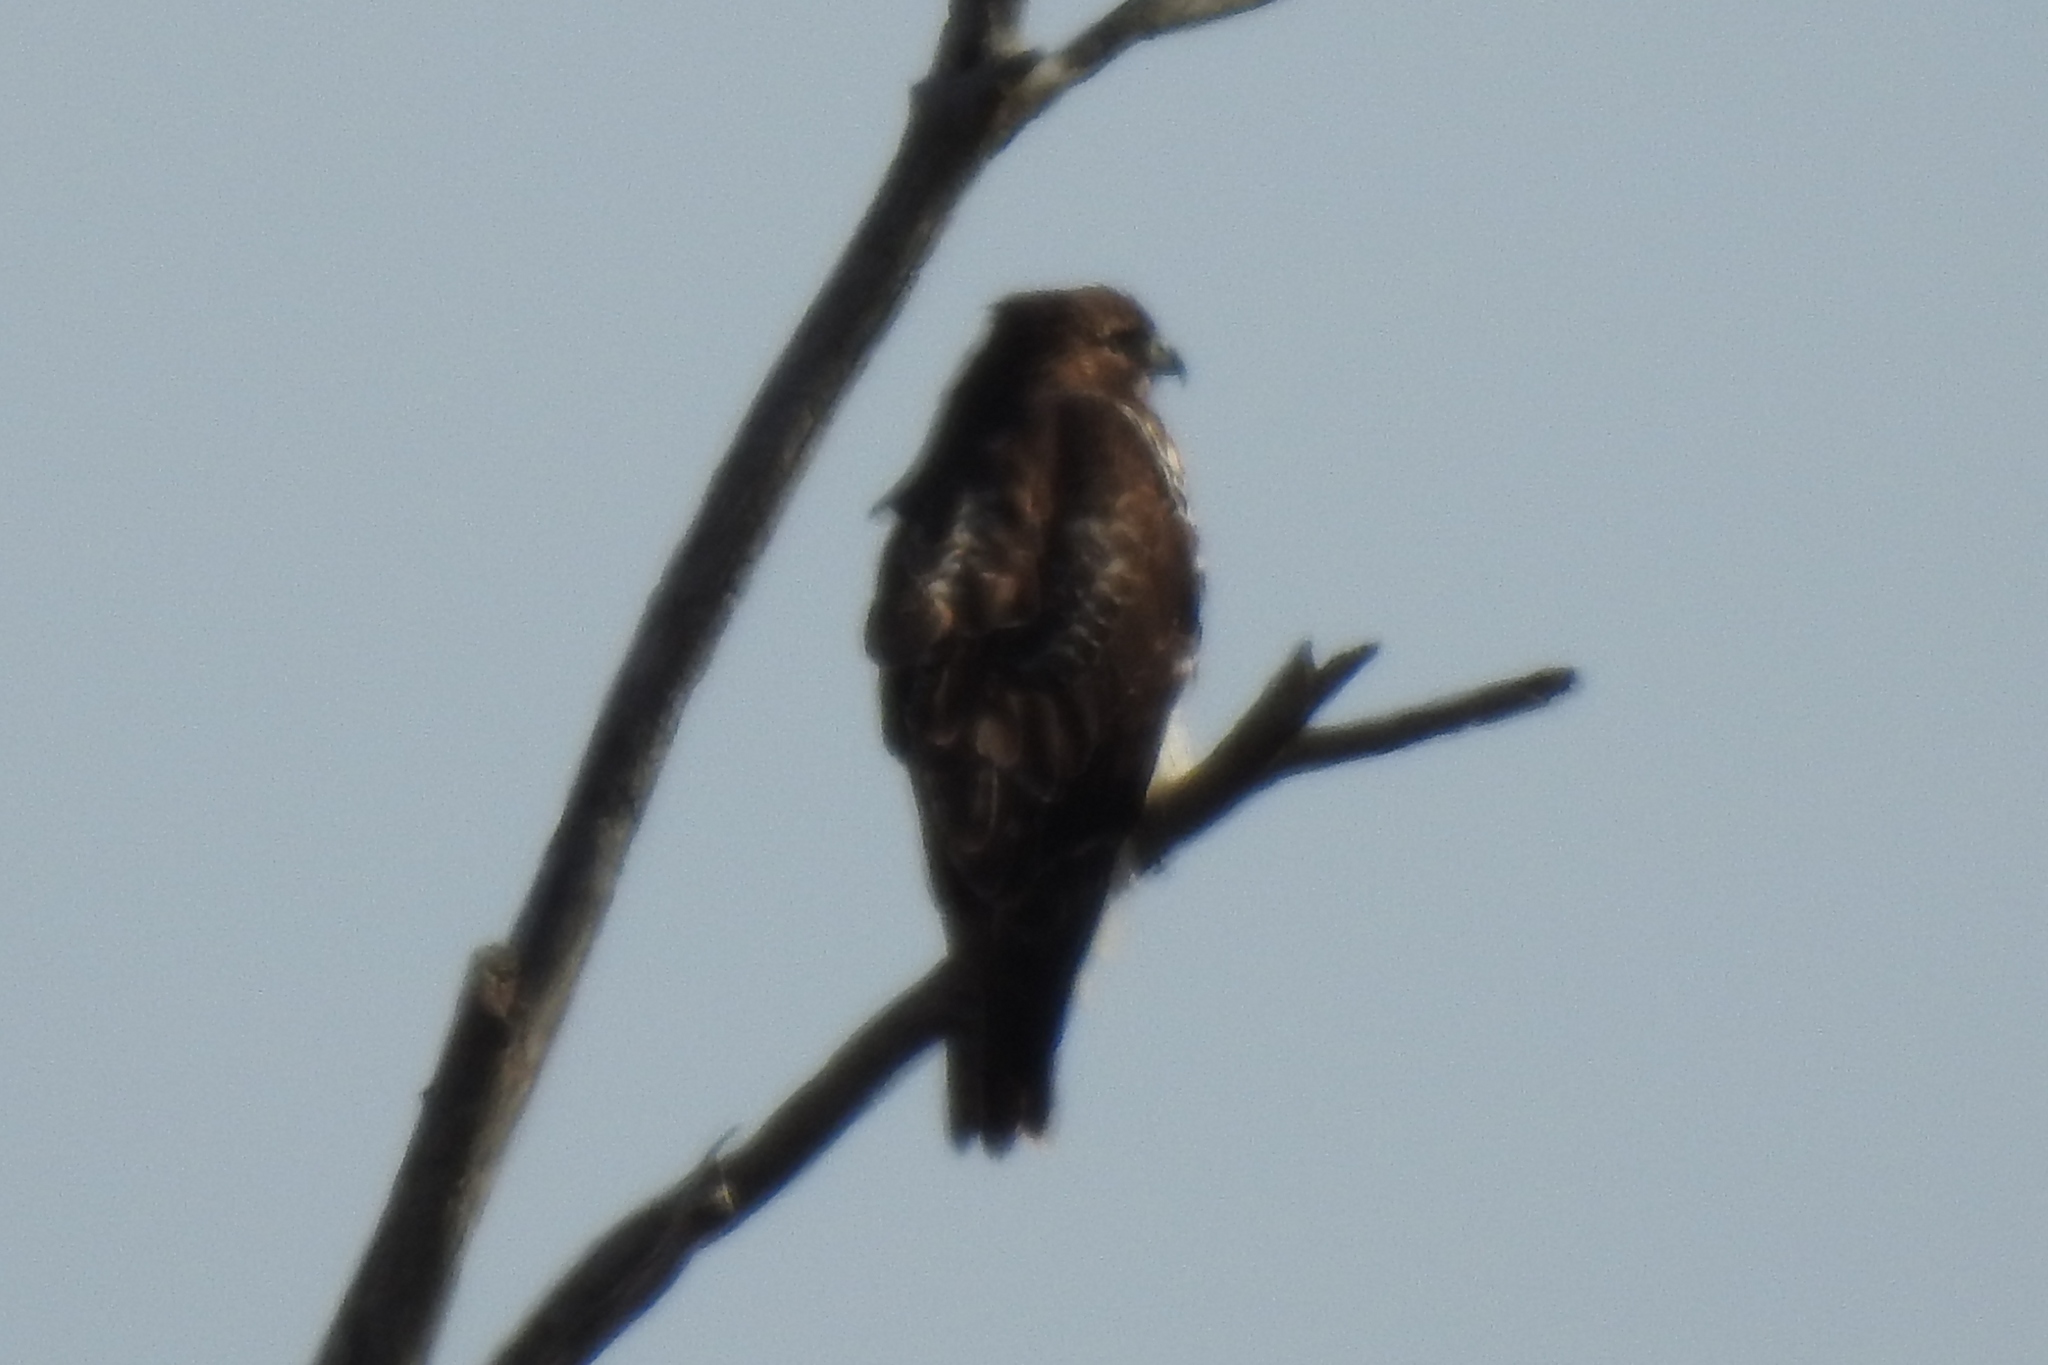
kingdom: Animalia
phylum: Chordata
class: Aves
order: Accipitriformes
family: Accipitridae
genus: Buteo
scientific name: Buteo jamaicensis
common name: Red-tailed hawk
